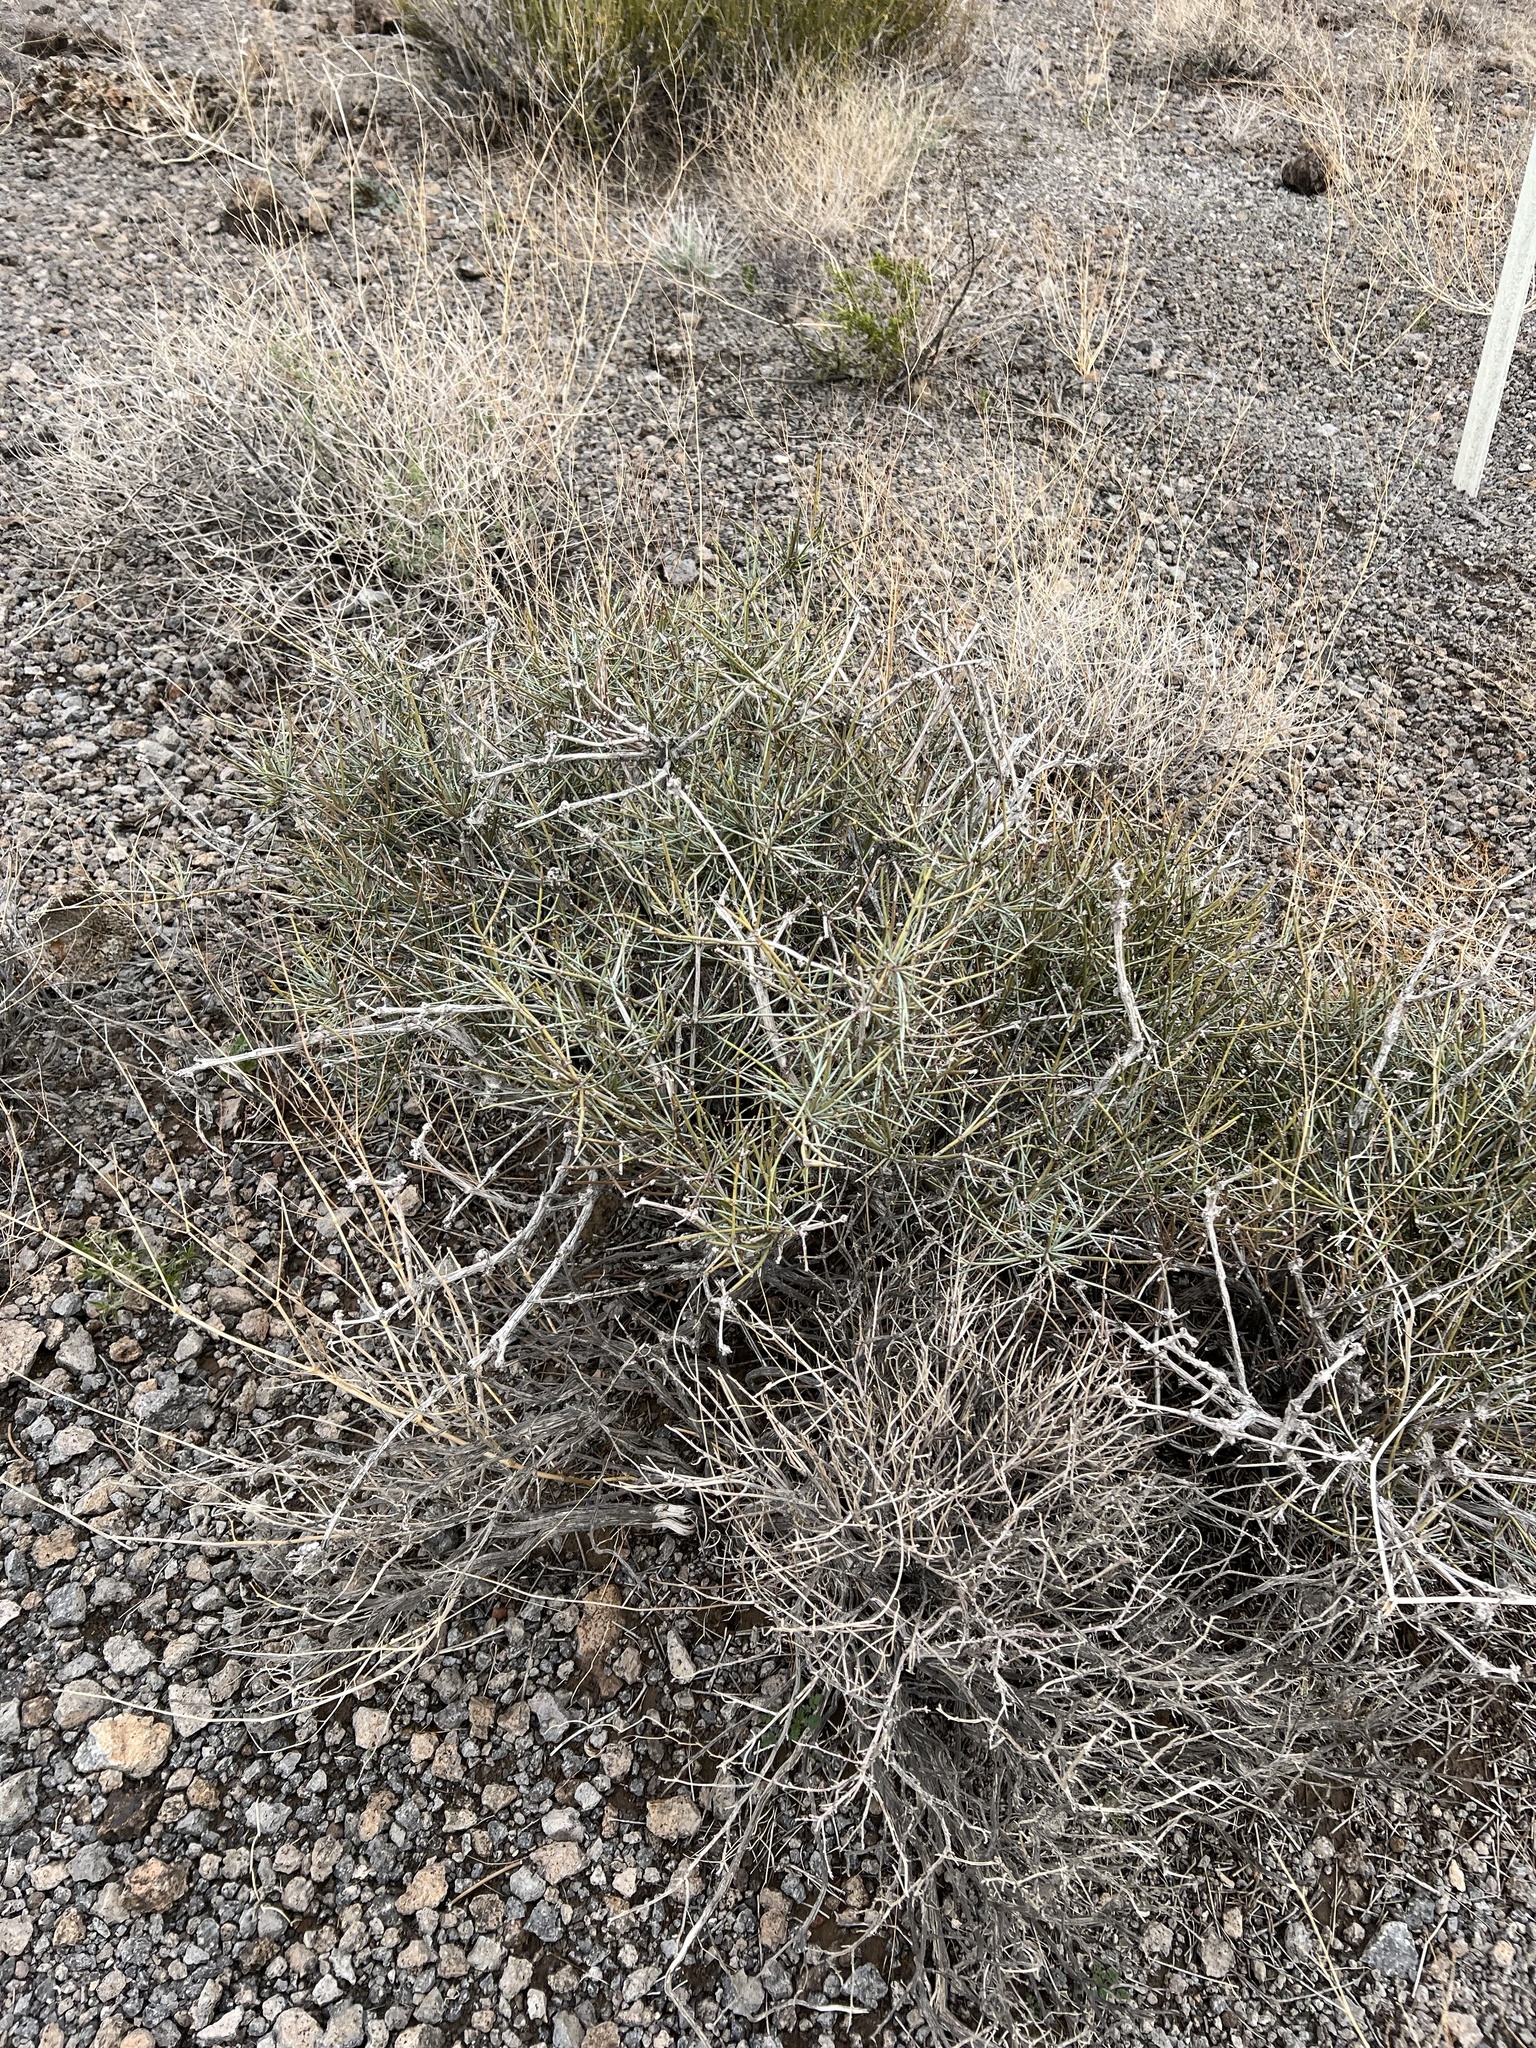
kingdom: Plantae
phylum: Tracheophyta
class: Gnetopsida
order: Ephedrales
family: Ephedraceae
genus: Ephedra
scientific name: Ephedra nevadensis
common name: Gray ephedra
